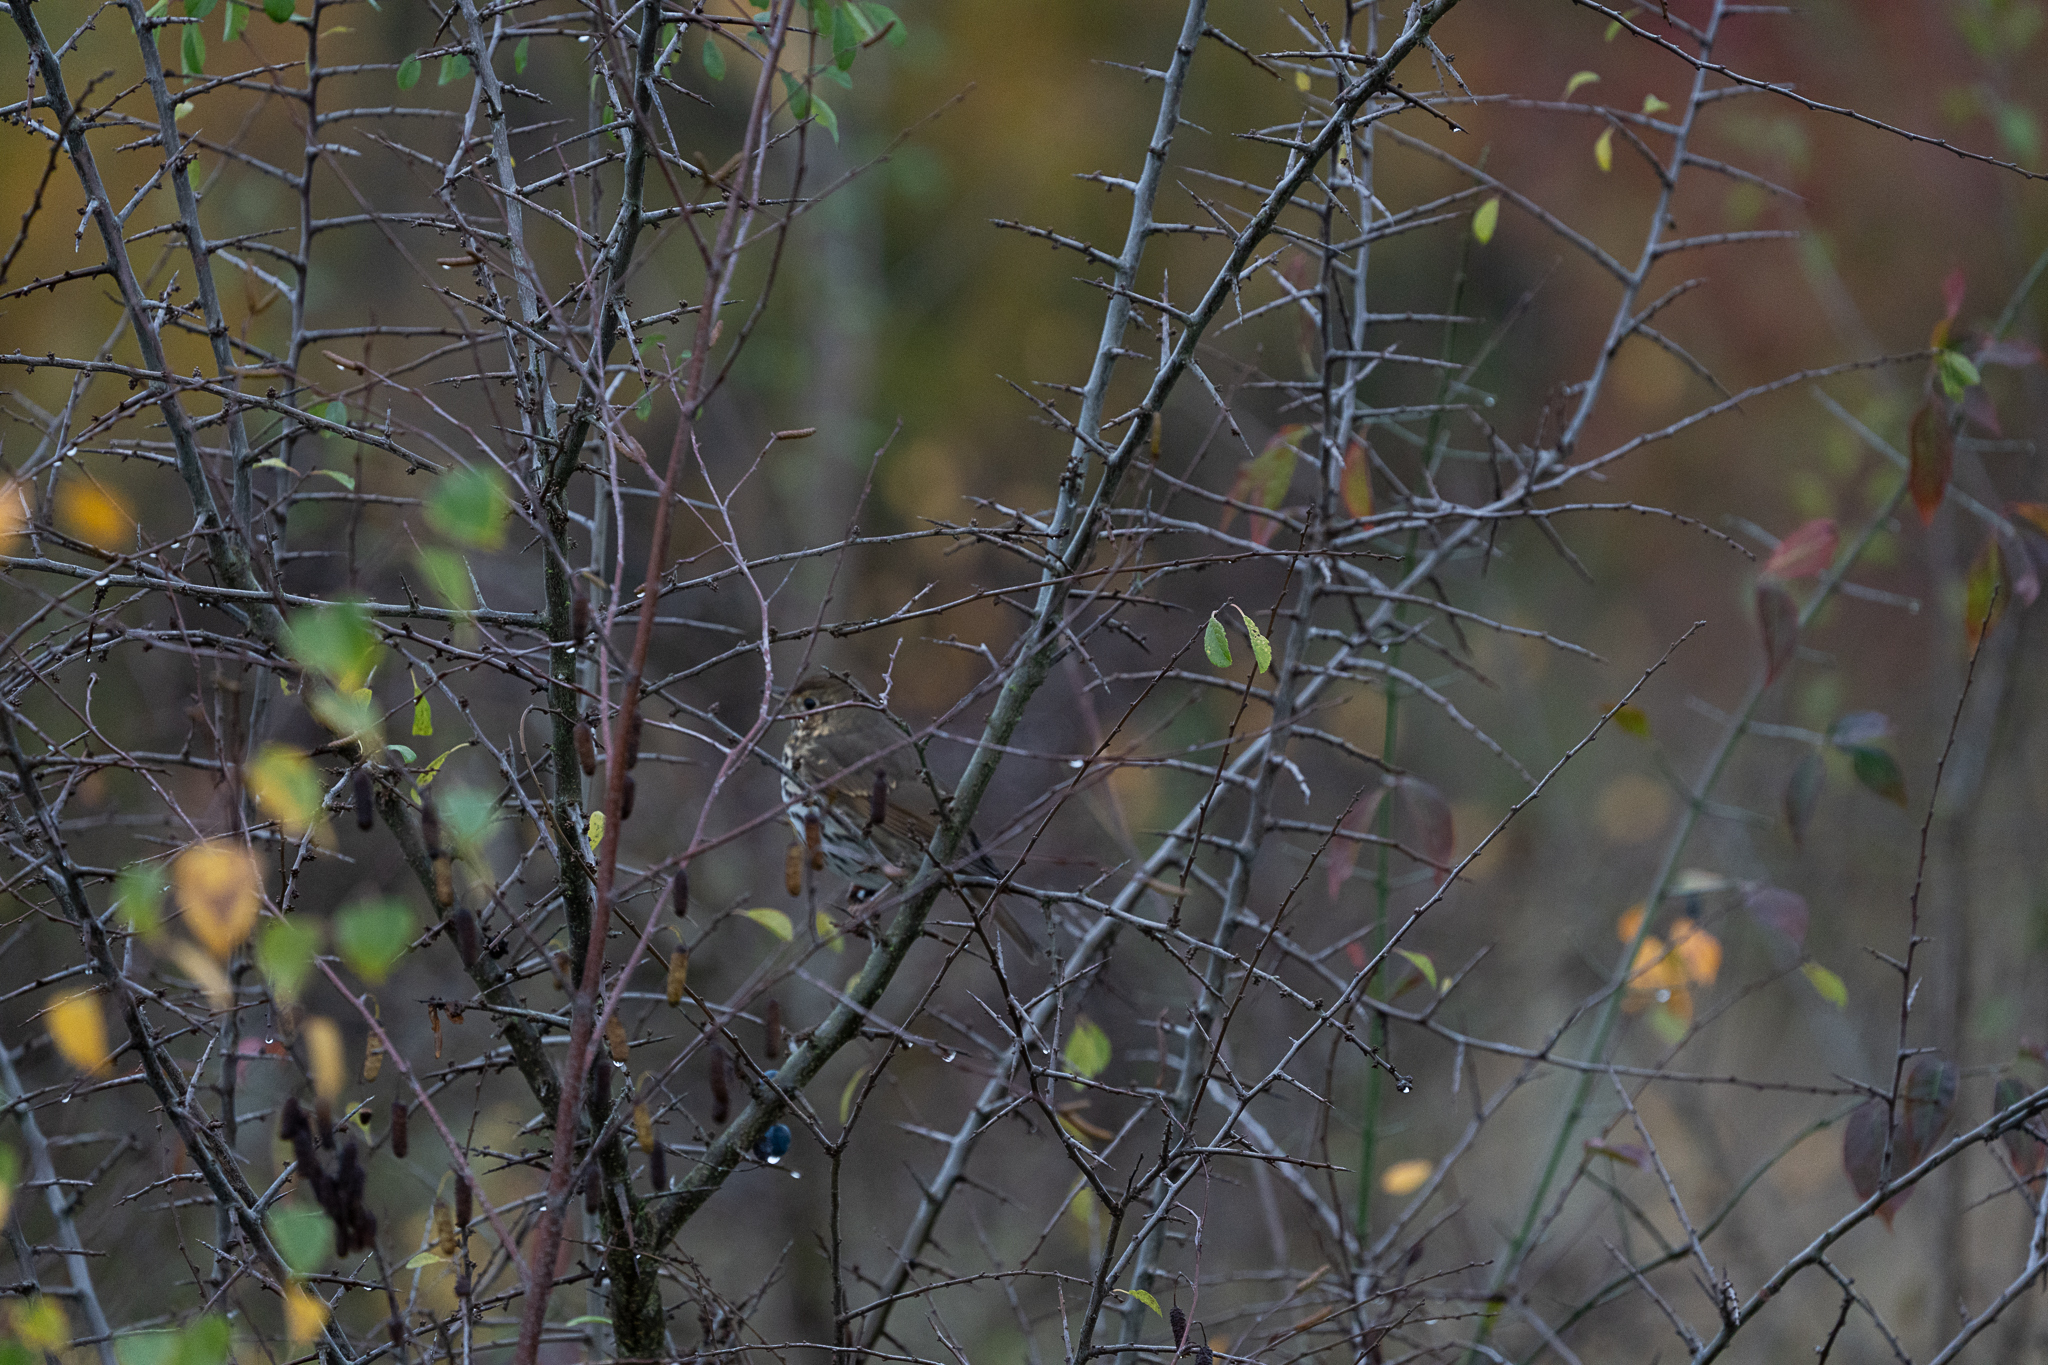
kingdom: Animalia
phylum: Chordata
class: Aves
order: Passeriformes
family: Turdidae
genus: Turdus
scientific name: Turdus philomelos
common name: Song thrush
